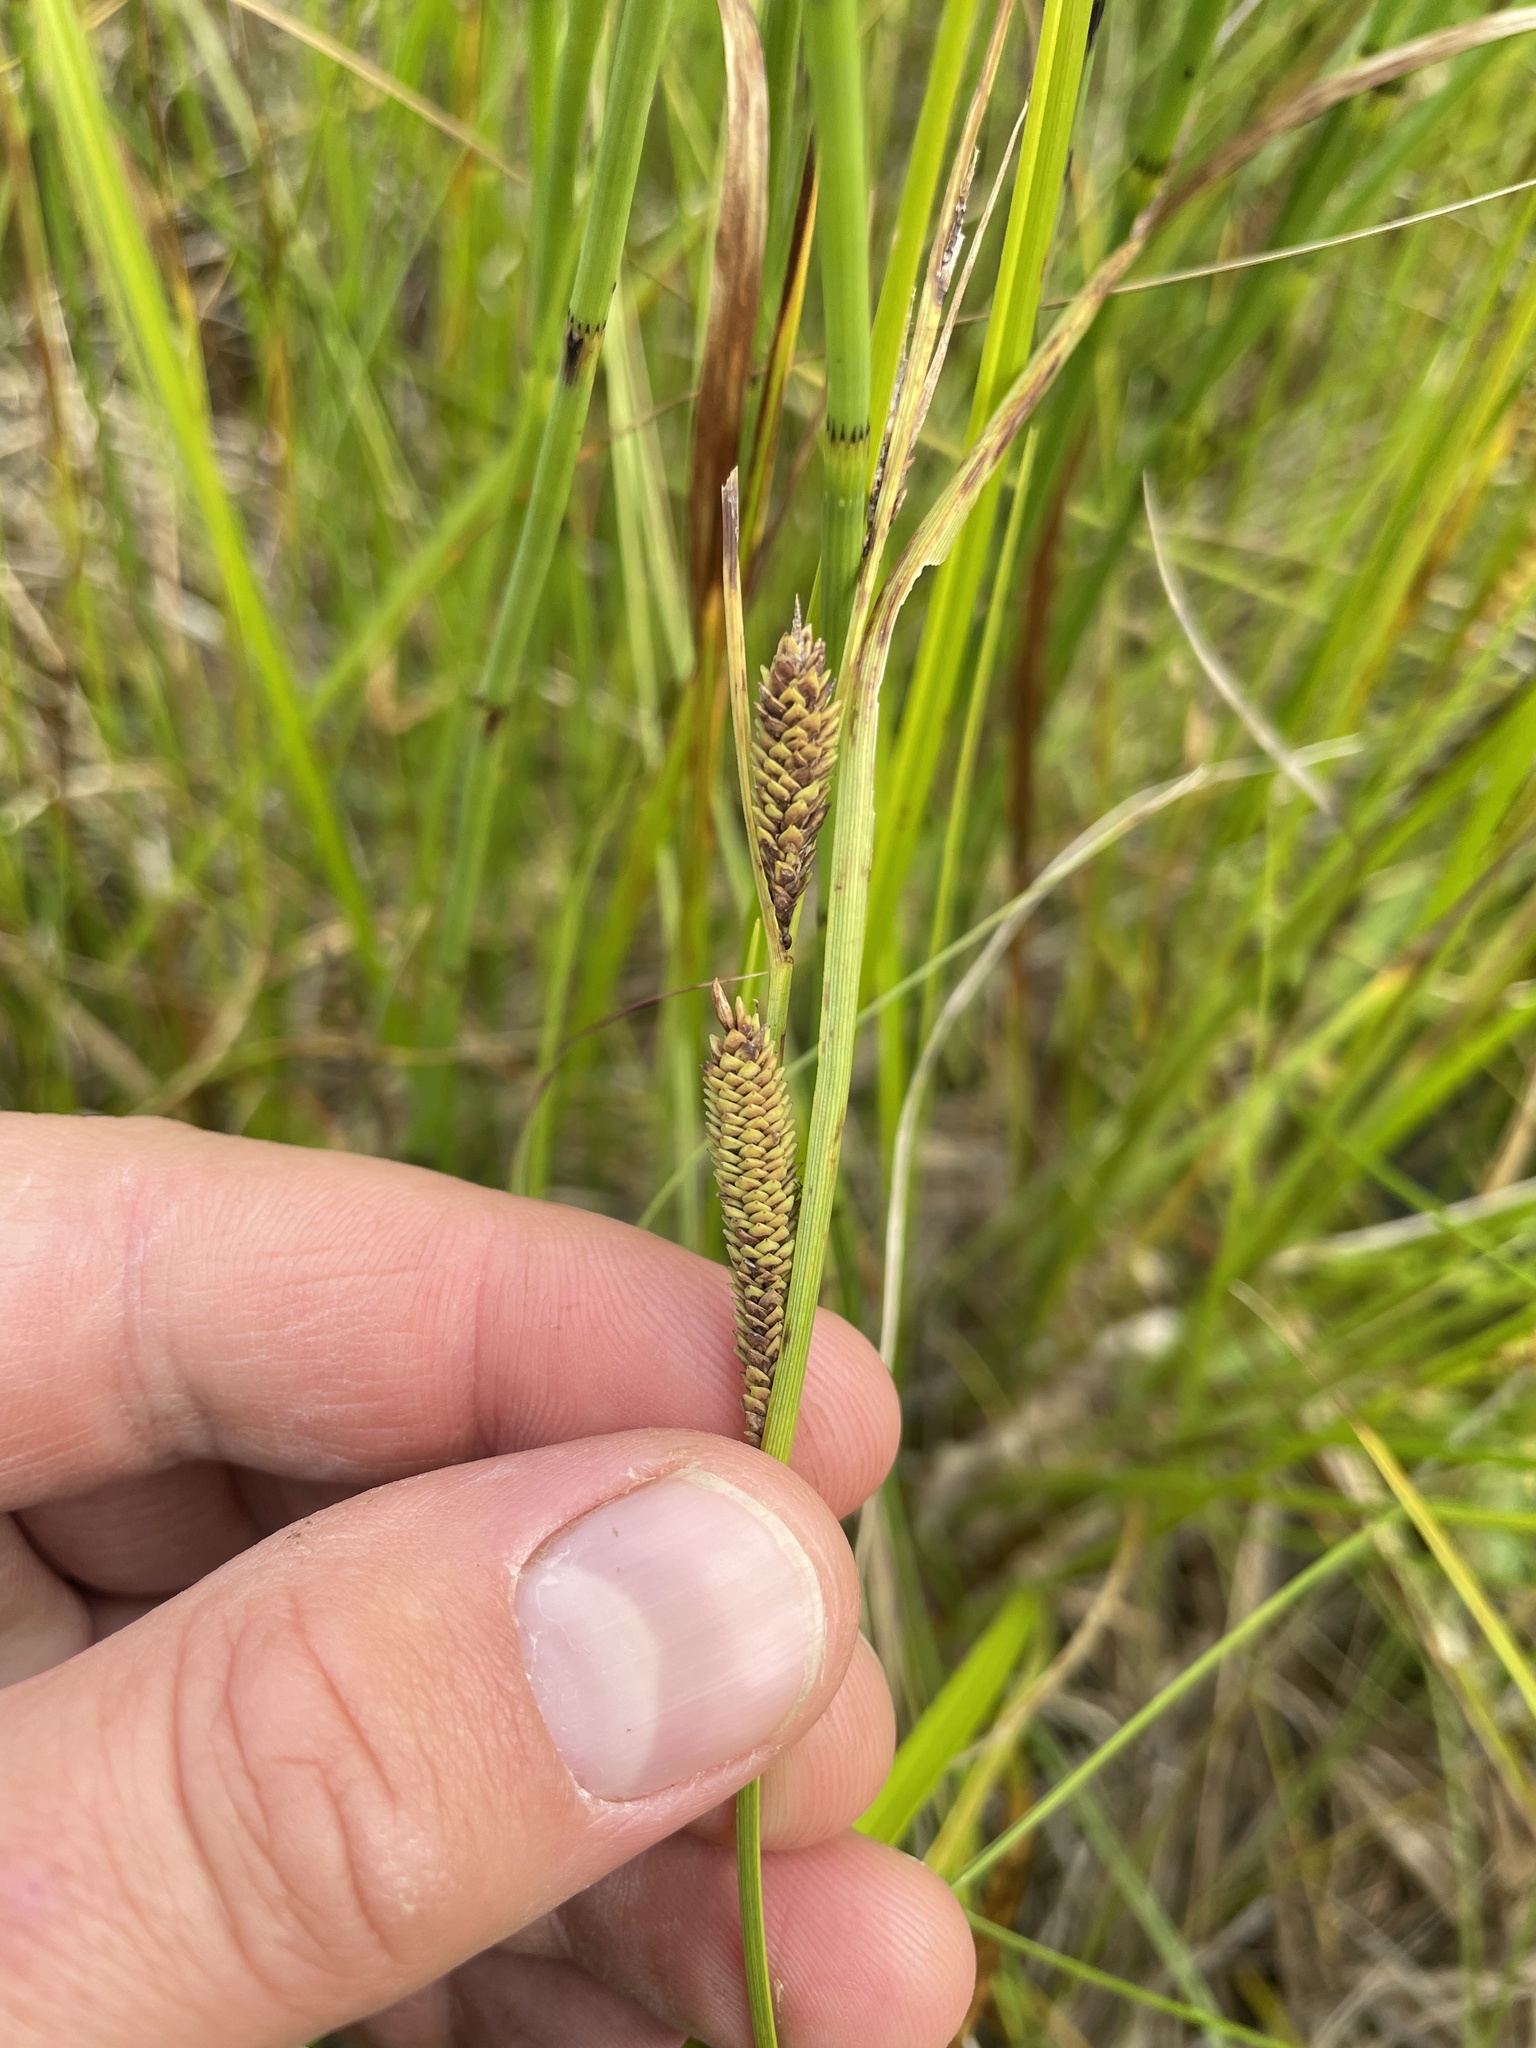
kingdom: Plantae
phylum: Tracheophyta
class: Liliopsida
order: Poales
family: Cyperaceae
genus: Carex
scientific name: Carex aquatilis
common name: Water sedge
